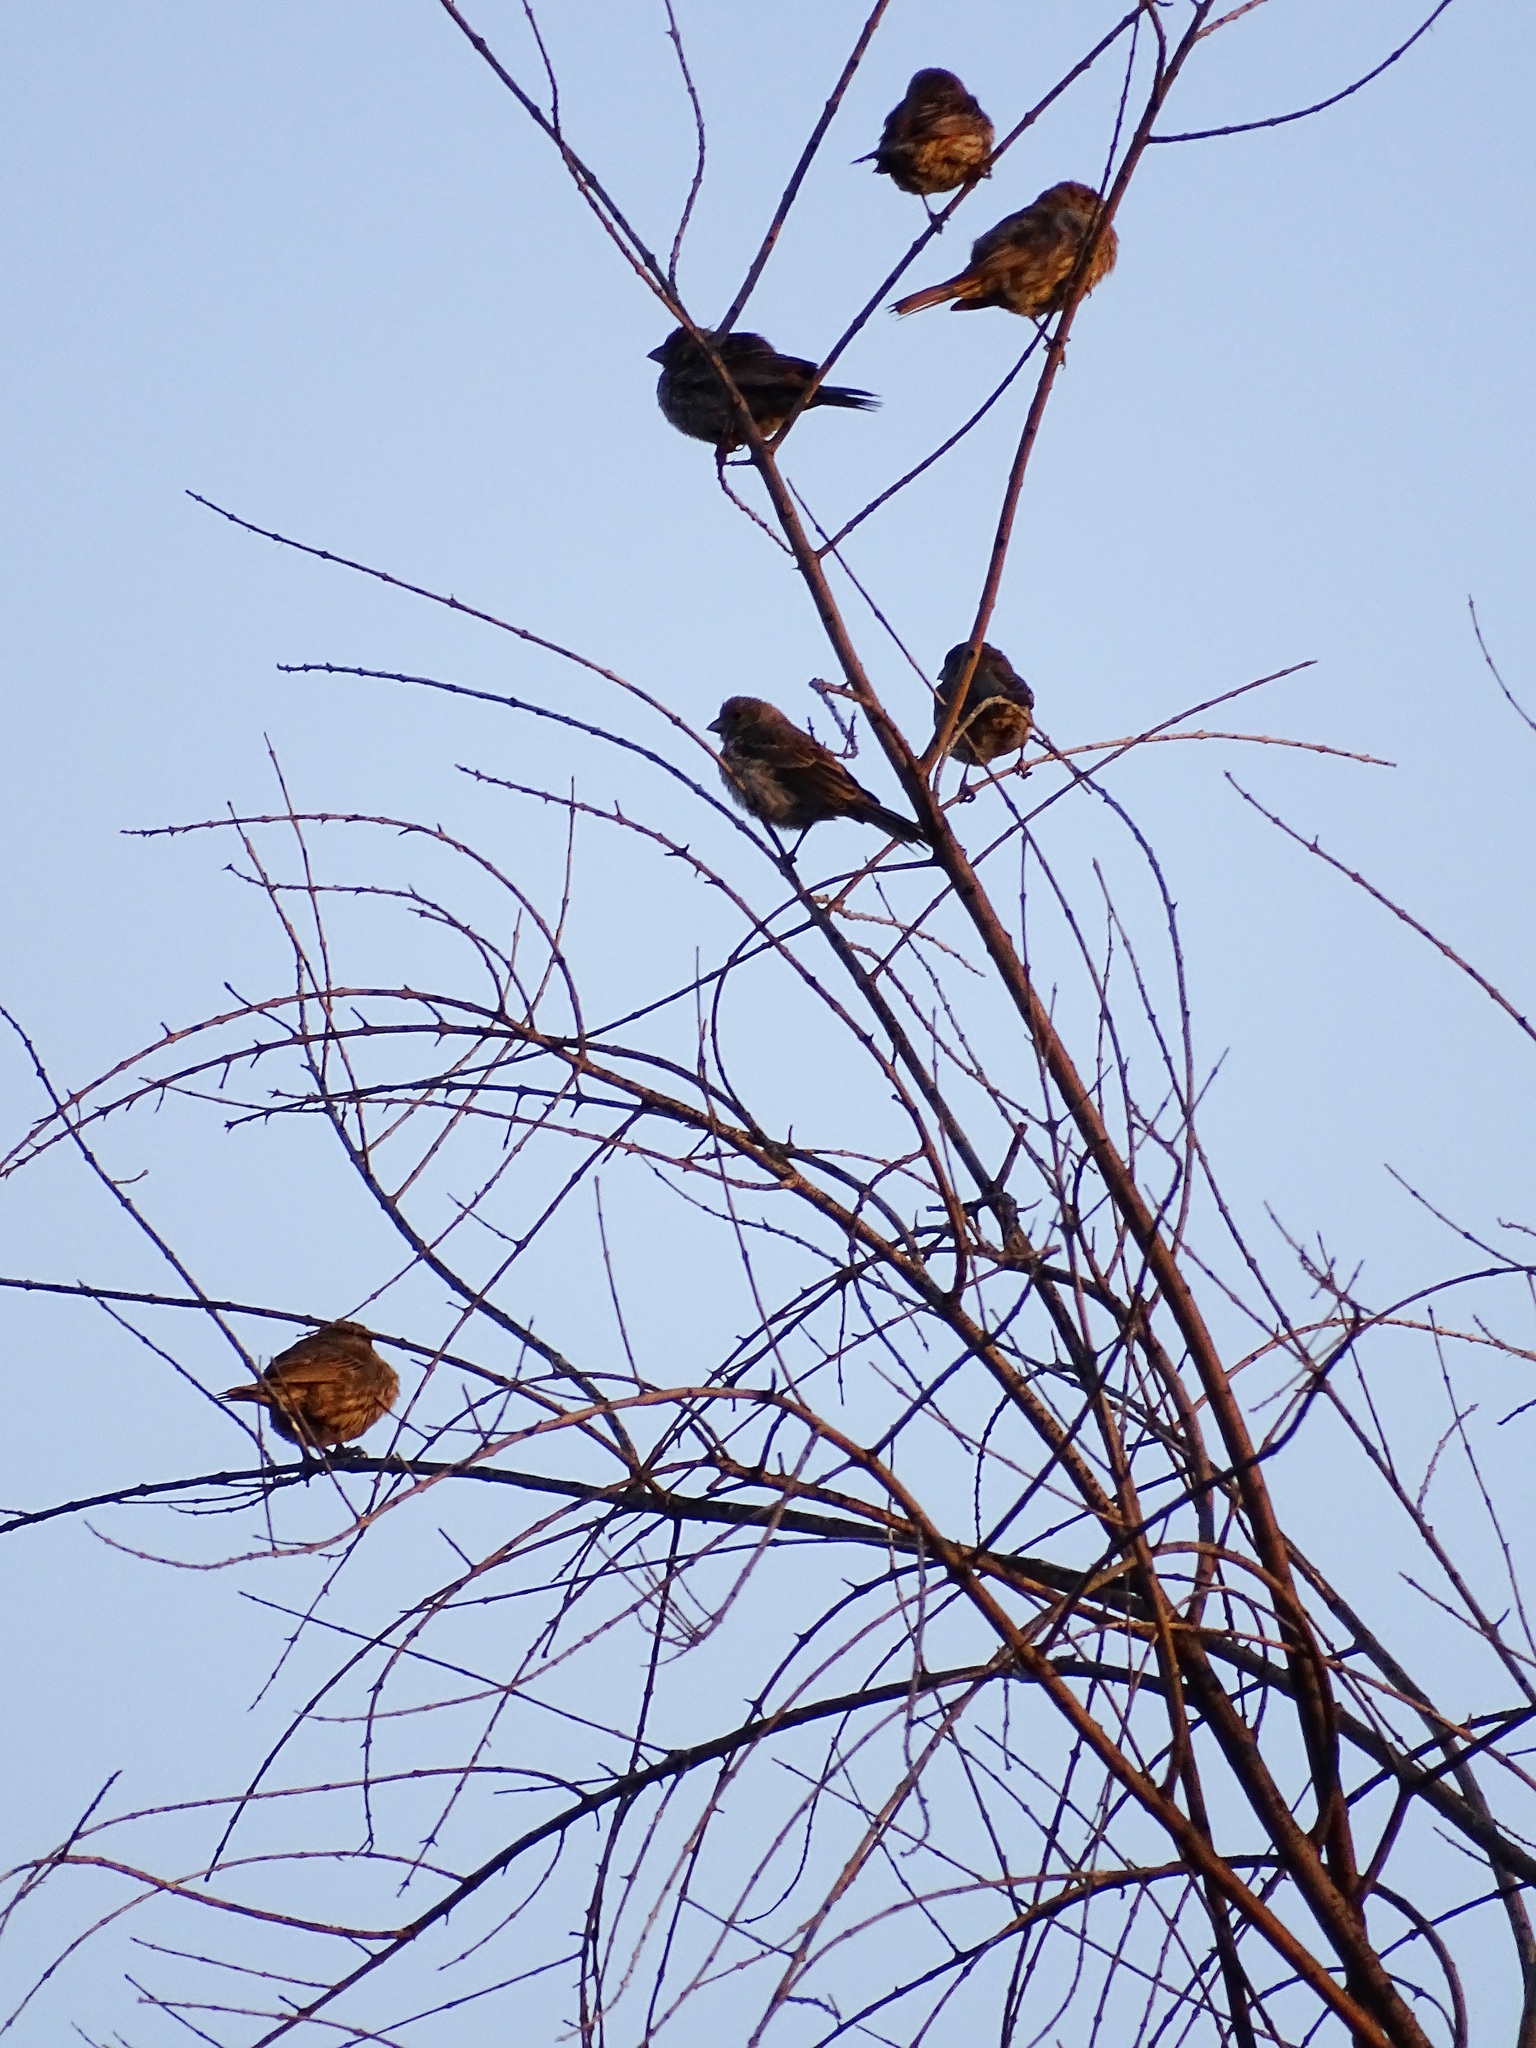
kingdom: Animalia
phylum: Chordata
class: Aves
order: Passeriformes
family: Fringillidae
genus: Haemorhous
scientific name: Haemorhous mexicanus
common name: House finch
